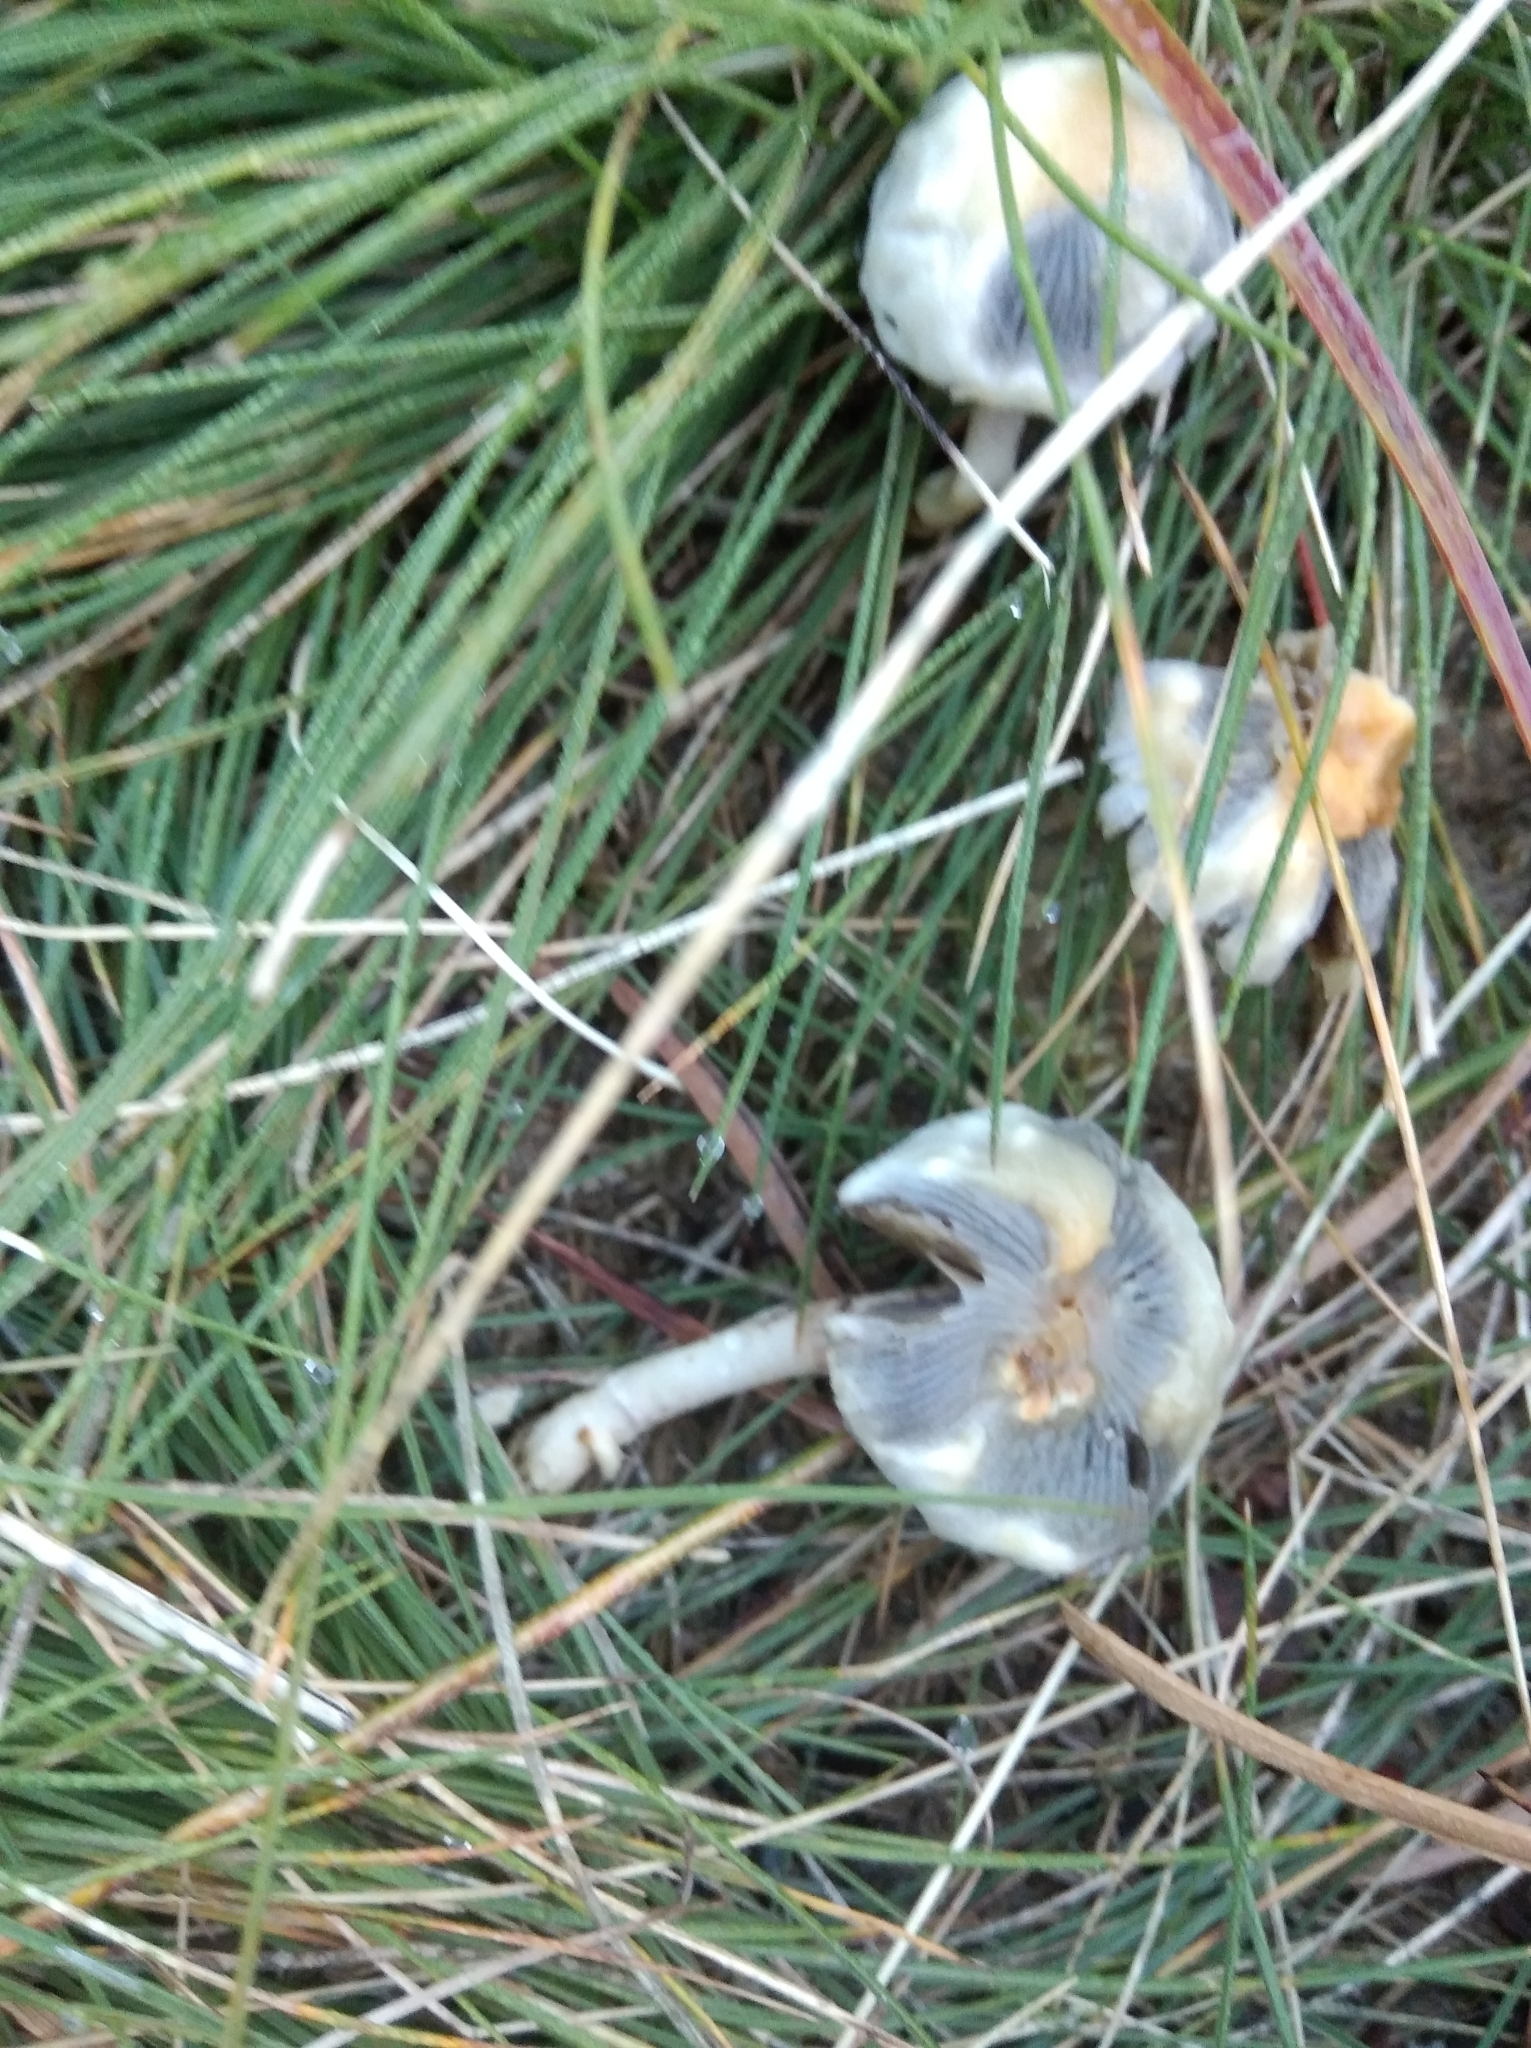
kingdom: Fungi
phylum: Basidiomycota
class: Agaricomycetes
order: Agaricales
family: Strophariaceae
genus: Protostropharia
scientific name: Protostropharia semiglobata
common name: Dung roundhead
